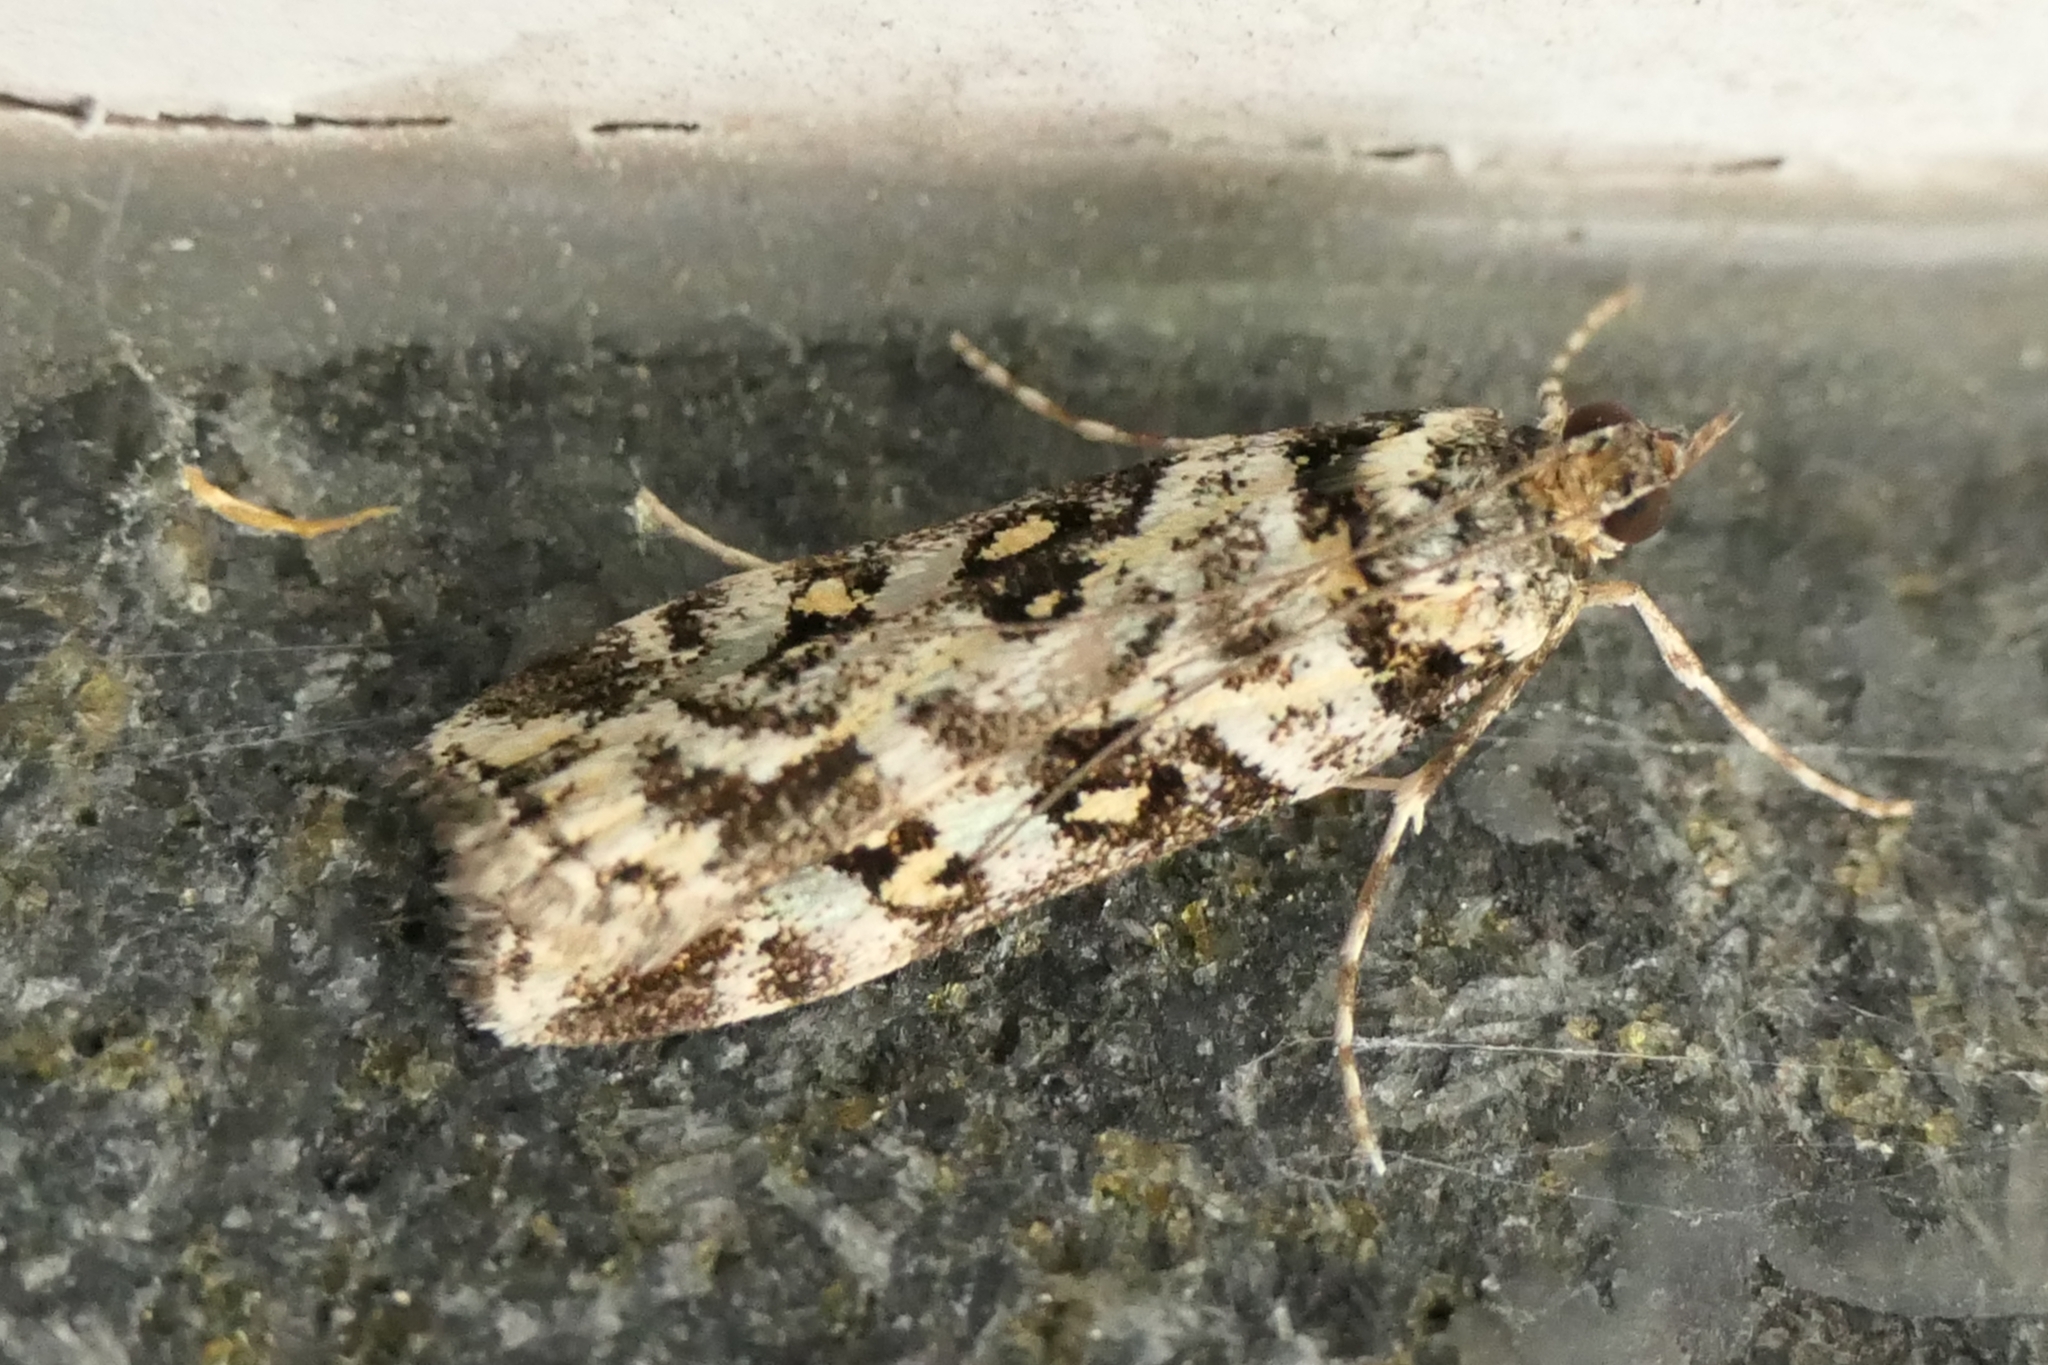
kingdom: Animalia
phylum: Arthropoda
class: Insecta
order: Lepidoptera
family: Crambidae
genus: Eudonia
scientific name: Eudonia diphtheralis
